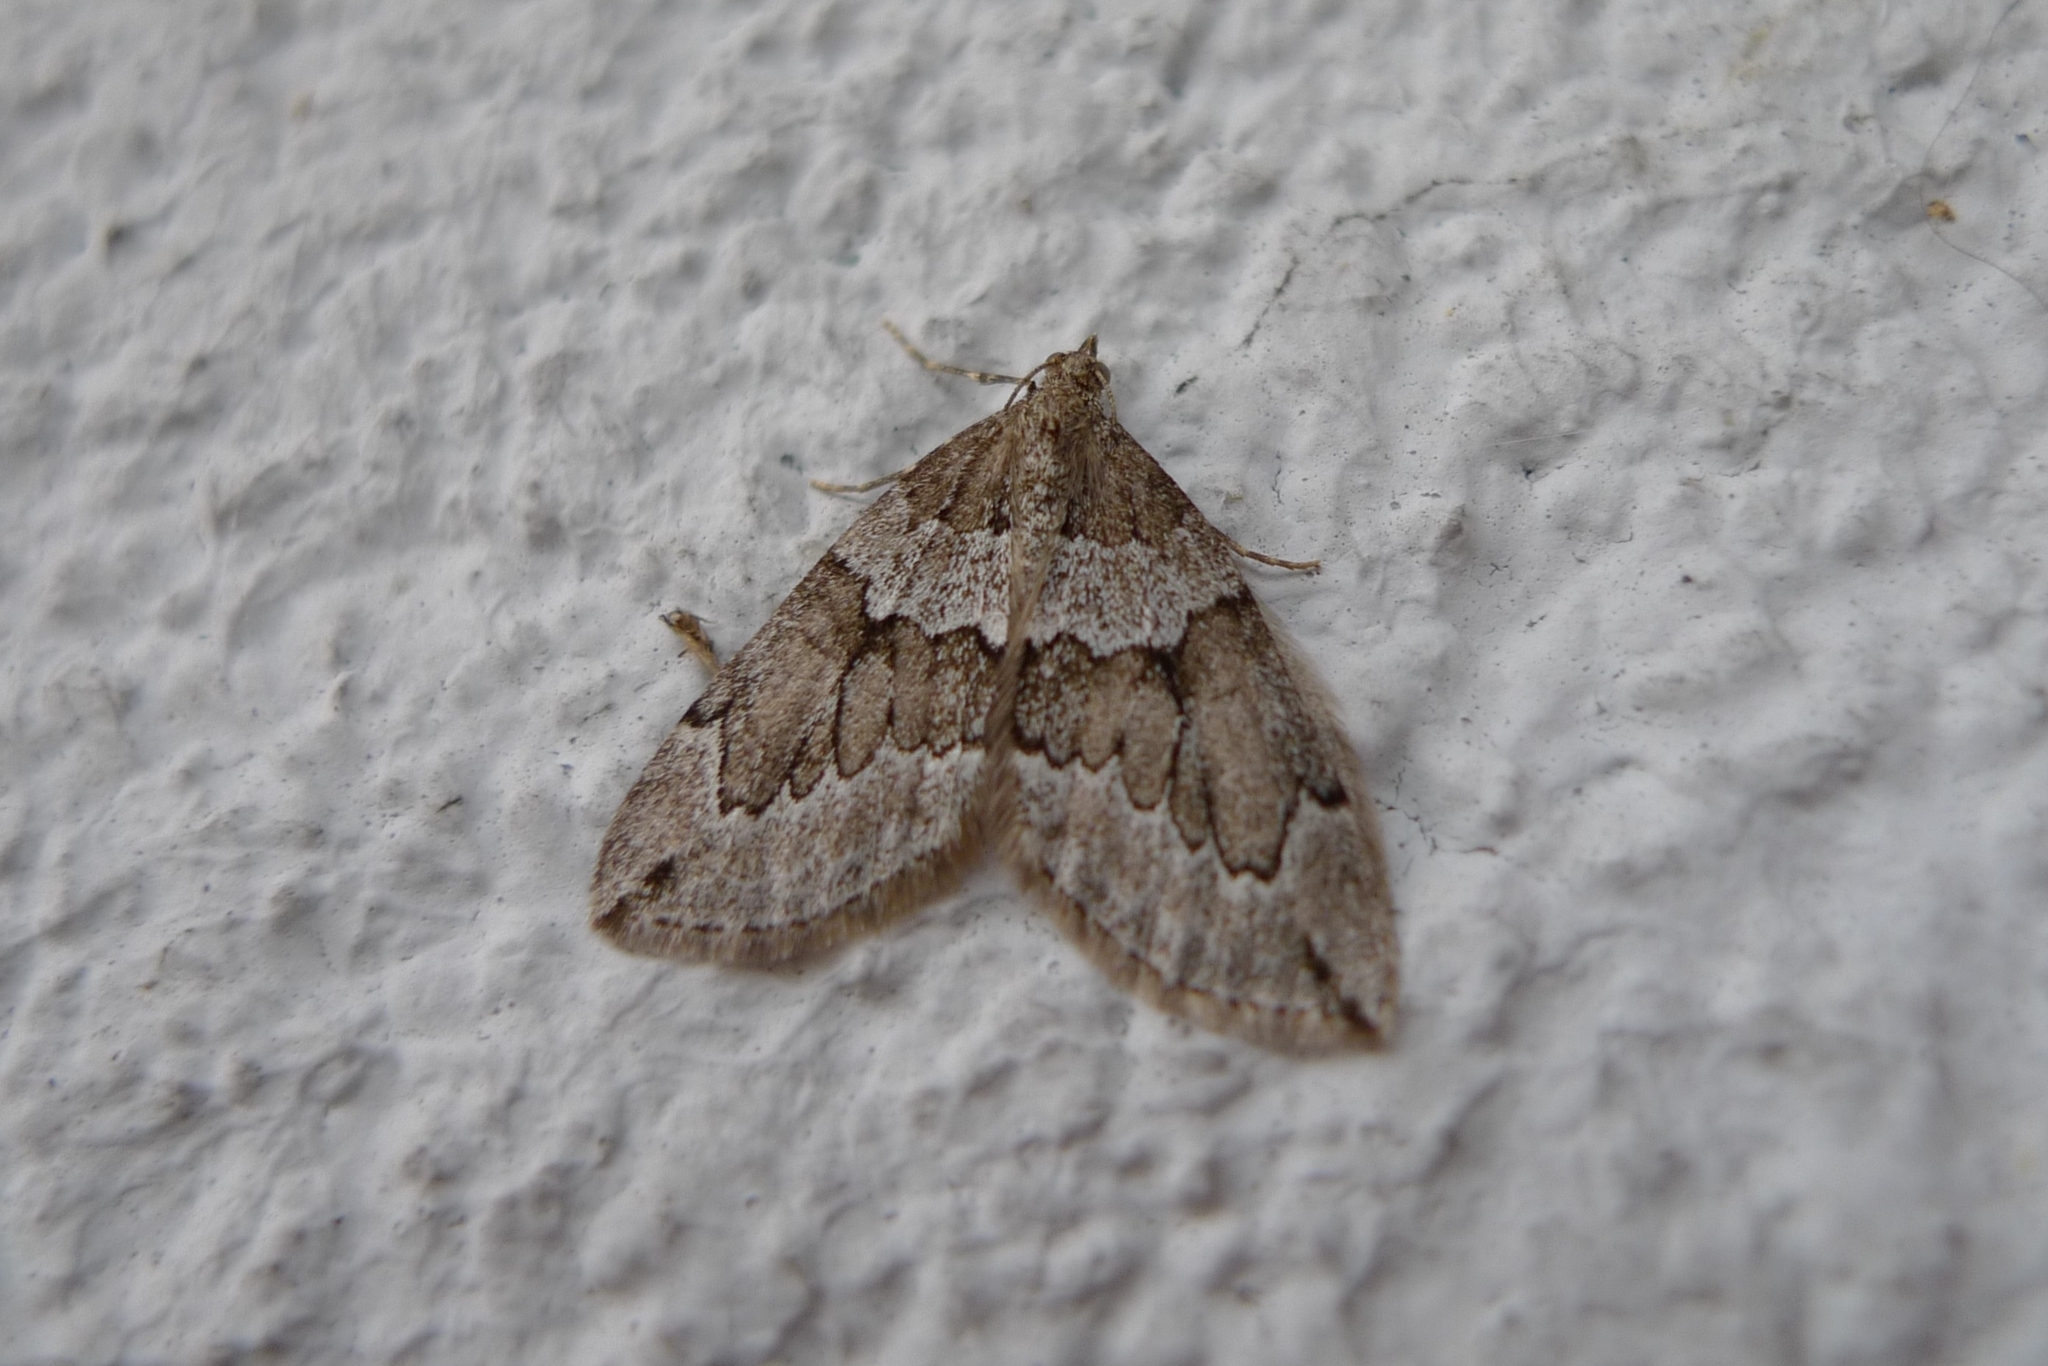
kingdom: Animalia
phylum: Arthropoda
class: Insecta
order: Lepidoptera
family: Geometridae
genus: Thera
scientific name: Thera juniperata
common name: Juniper carpet
